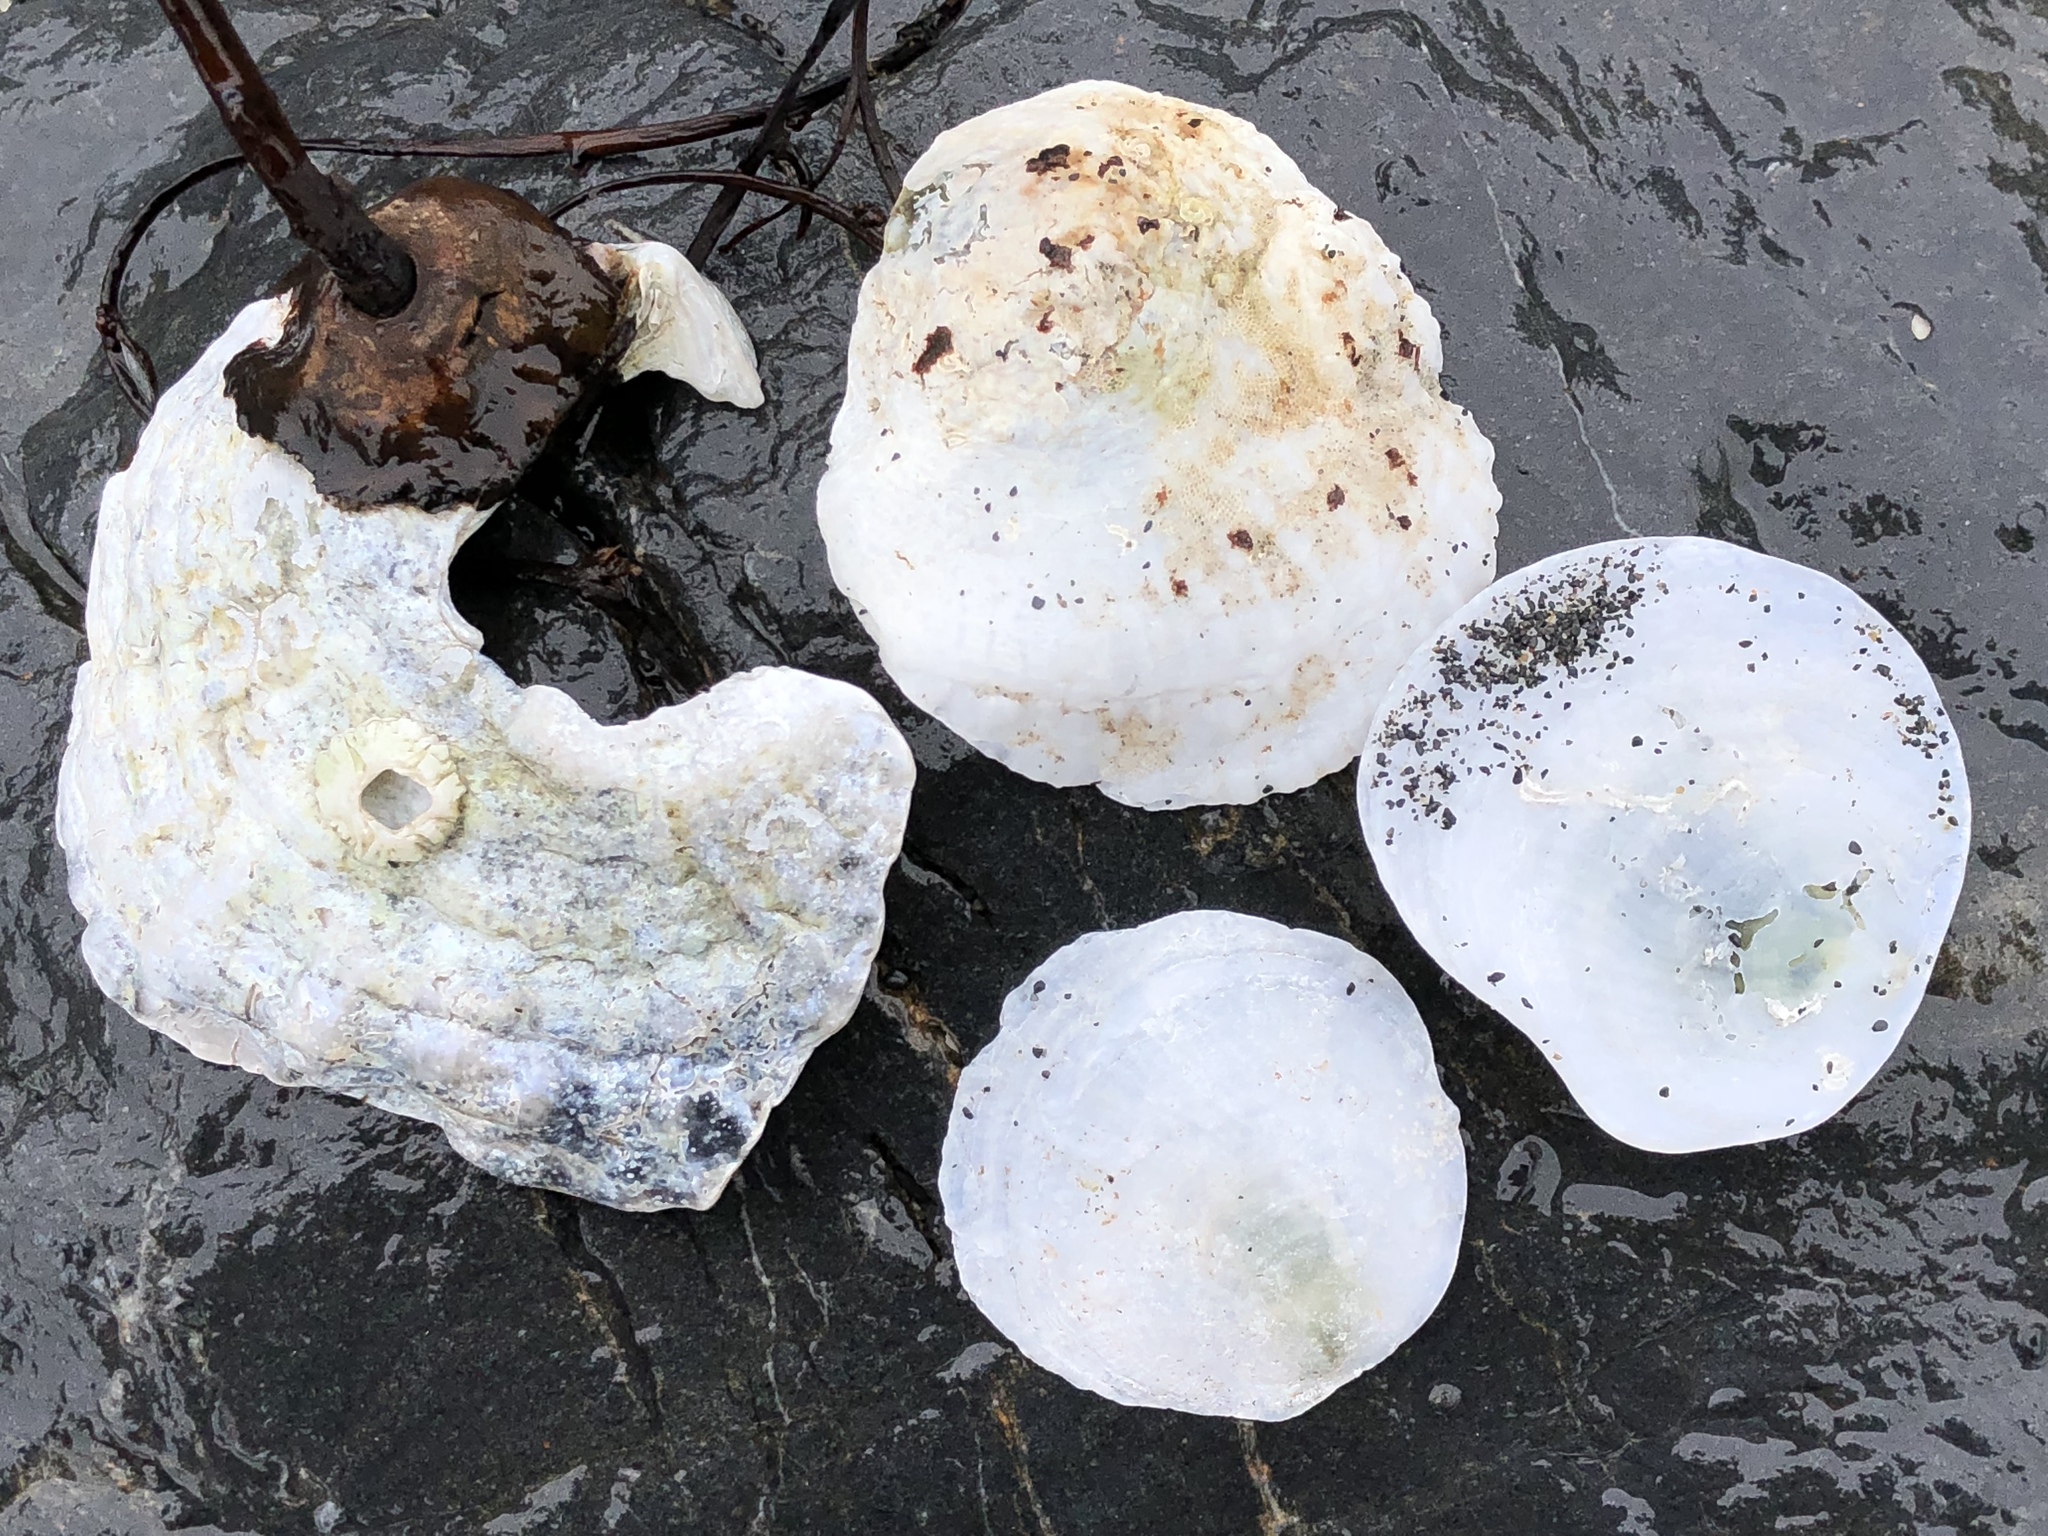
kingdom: Animalia
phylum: Mollusca
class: Bivalvia
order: Pectinida
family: Anomiidae
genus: Pododesmus
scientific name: Pododesmus macrochisma
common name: Alaska jingle
